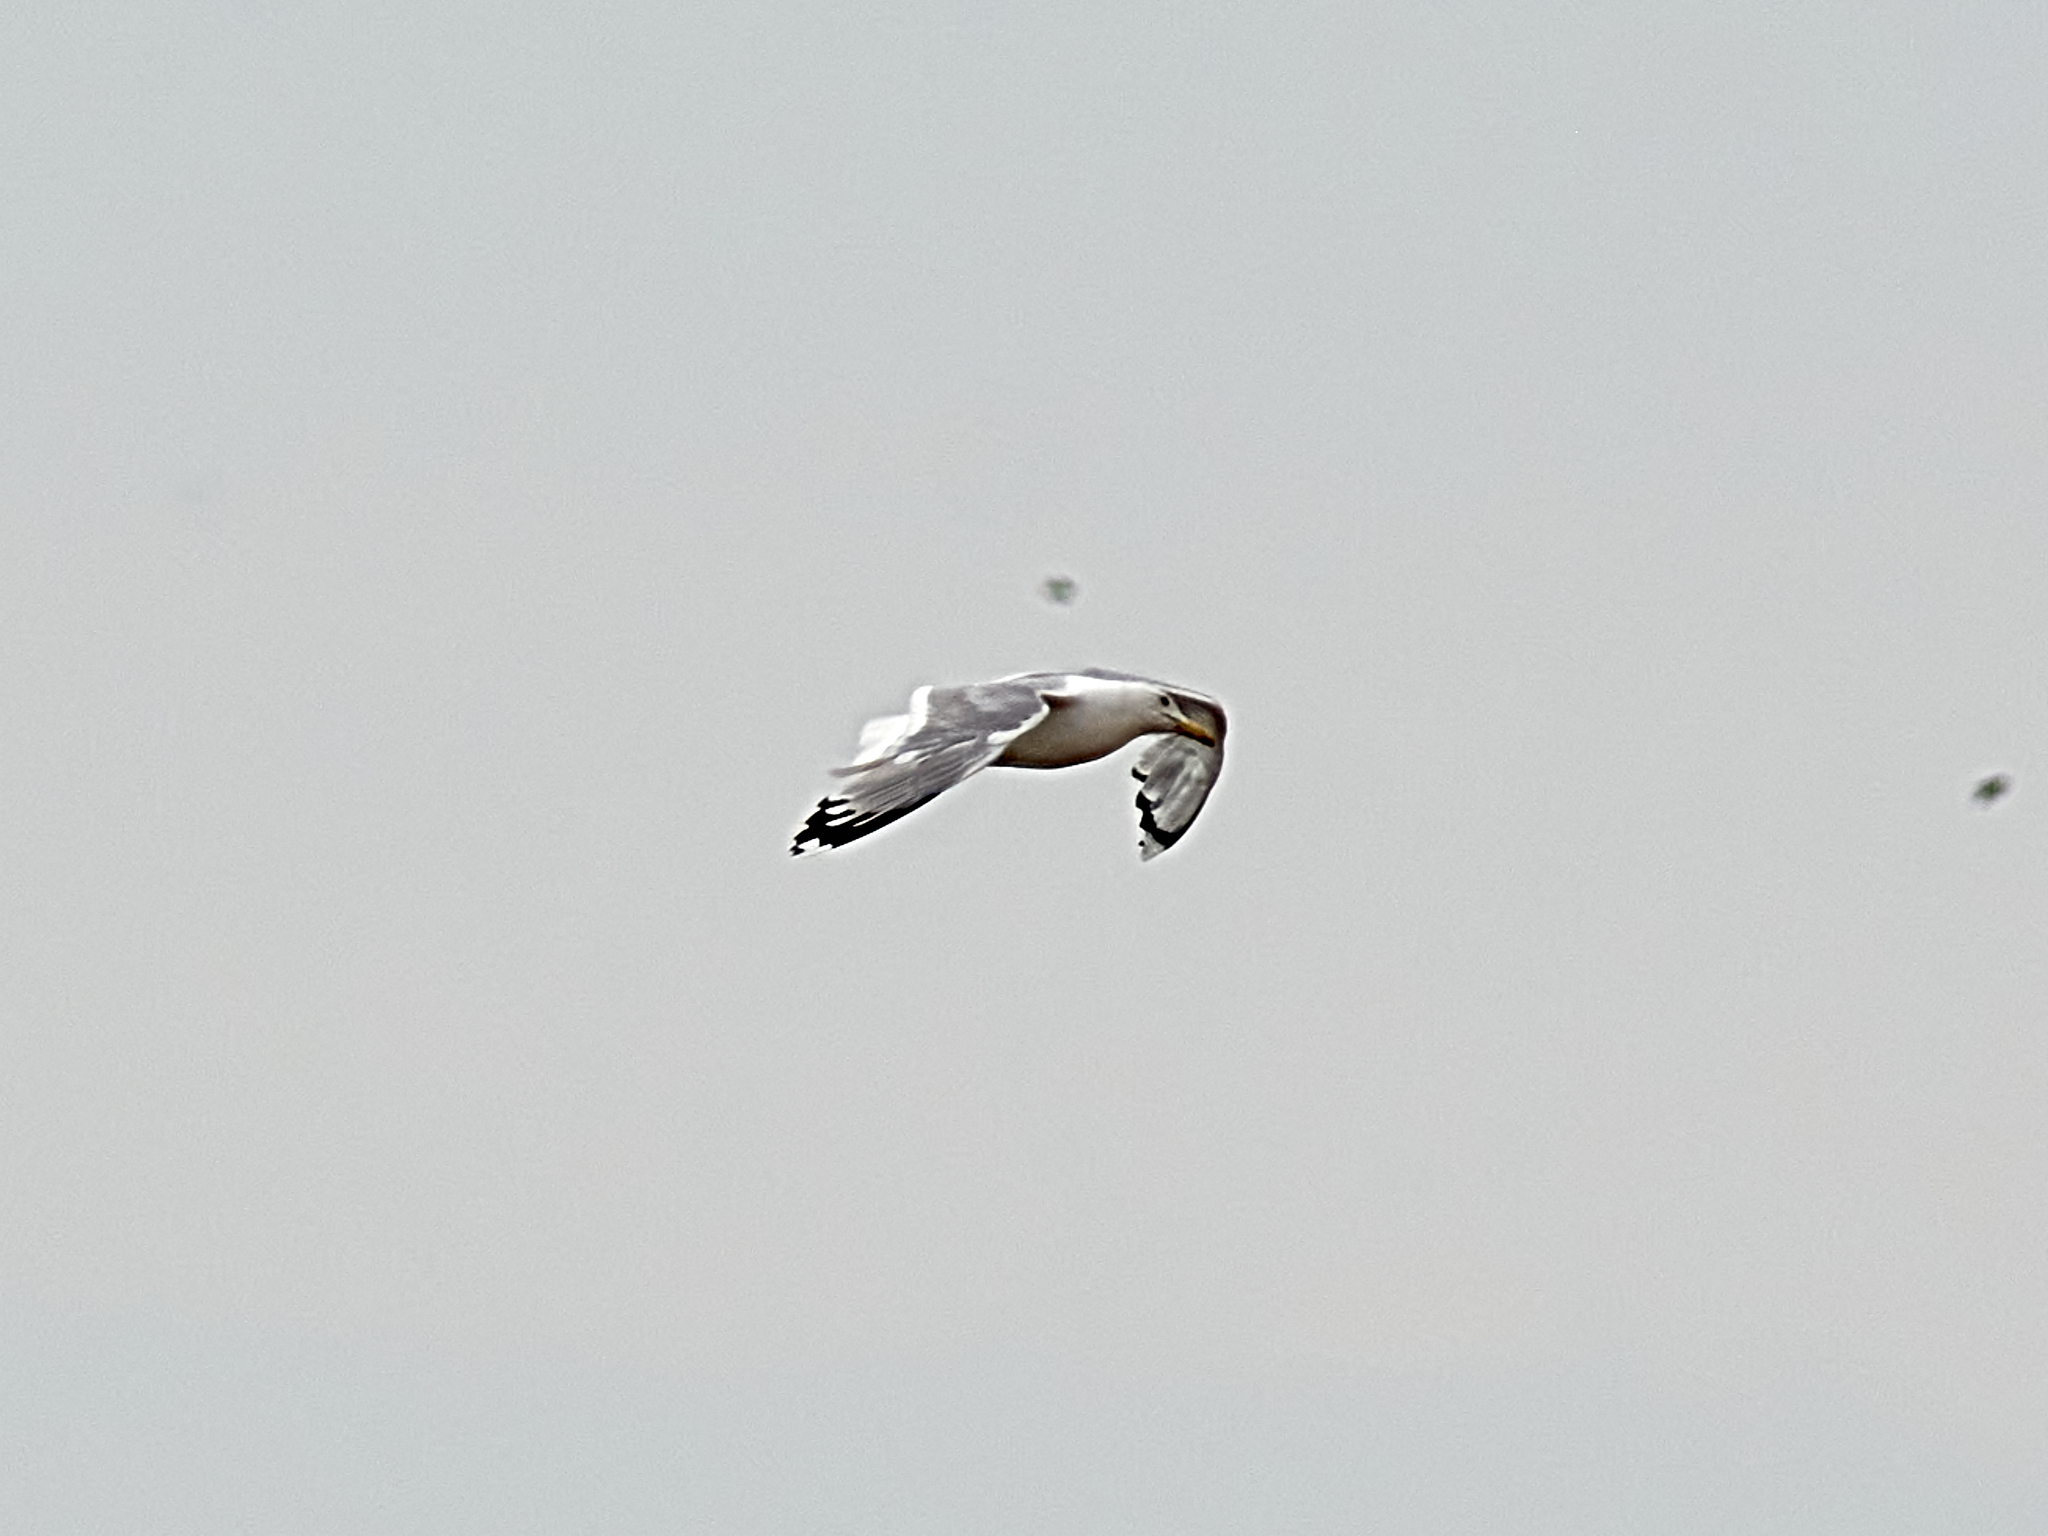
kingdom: Animalia
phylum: Chordata
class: Aves
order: Charadriiformes
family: Laridae
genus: Larus
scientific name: Larus cachinnans
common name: Caspian gull
